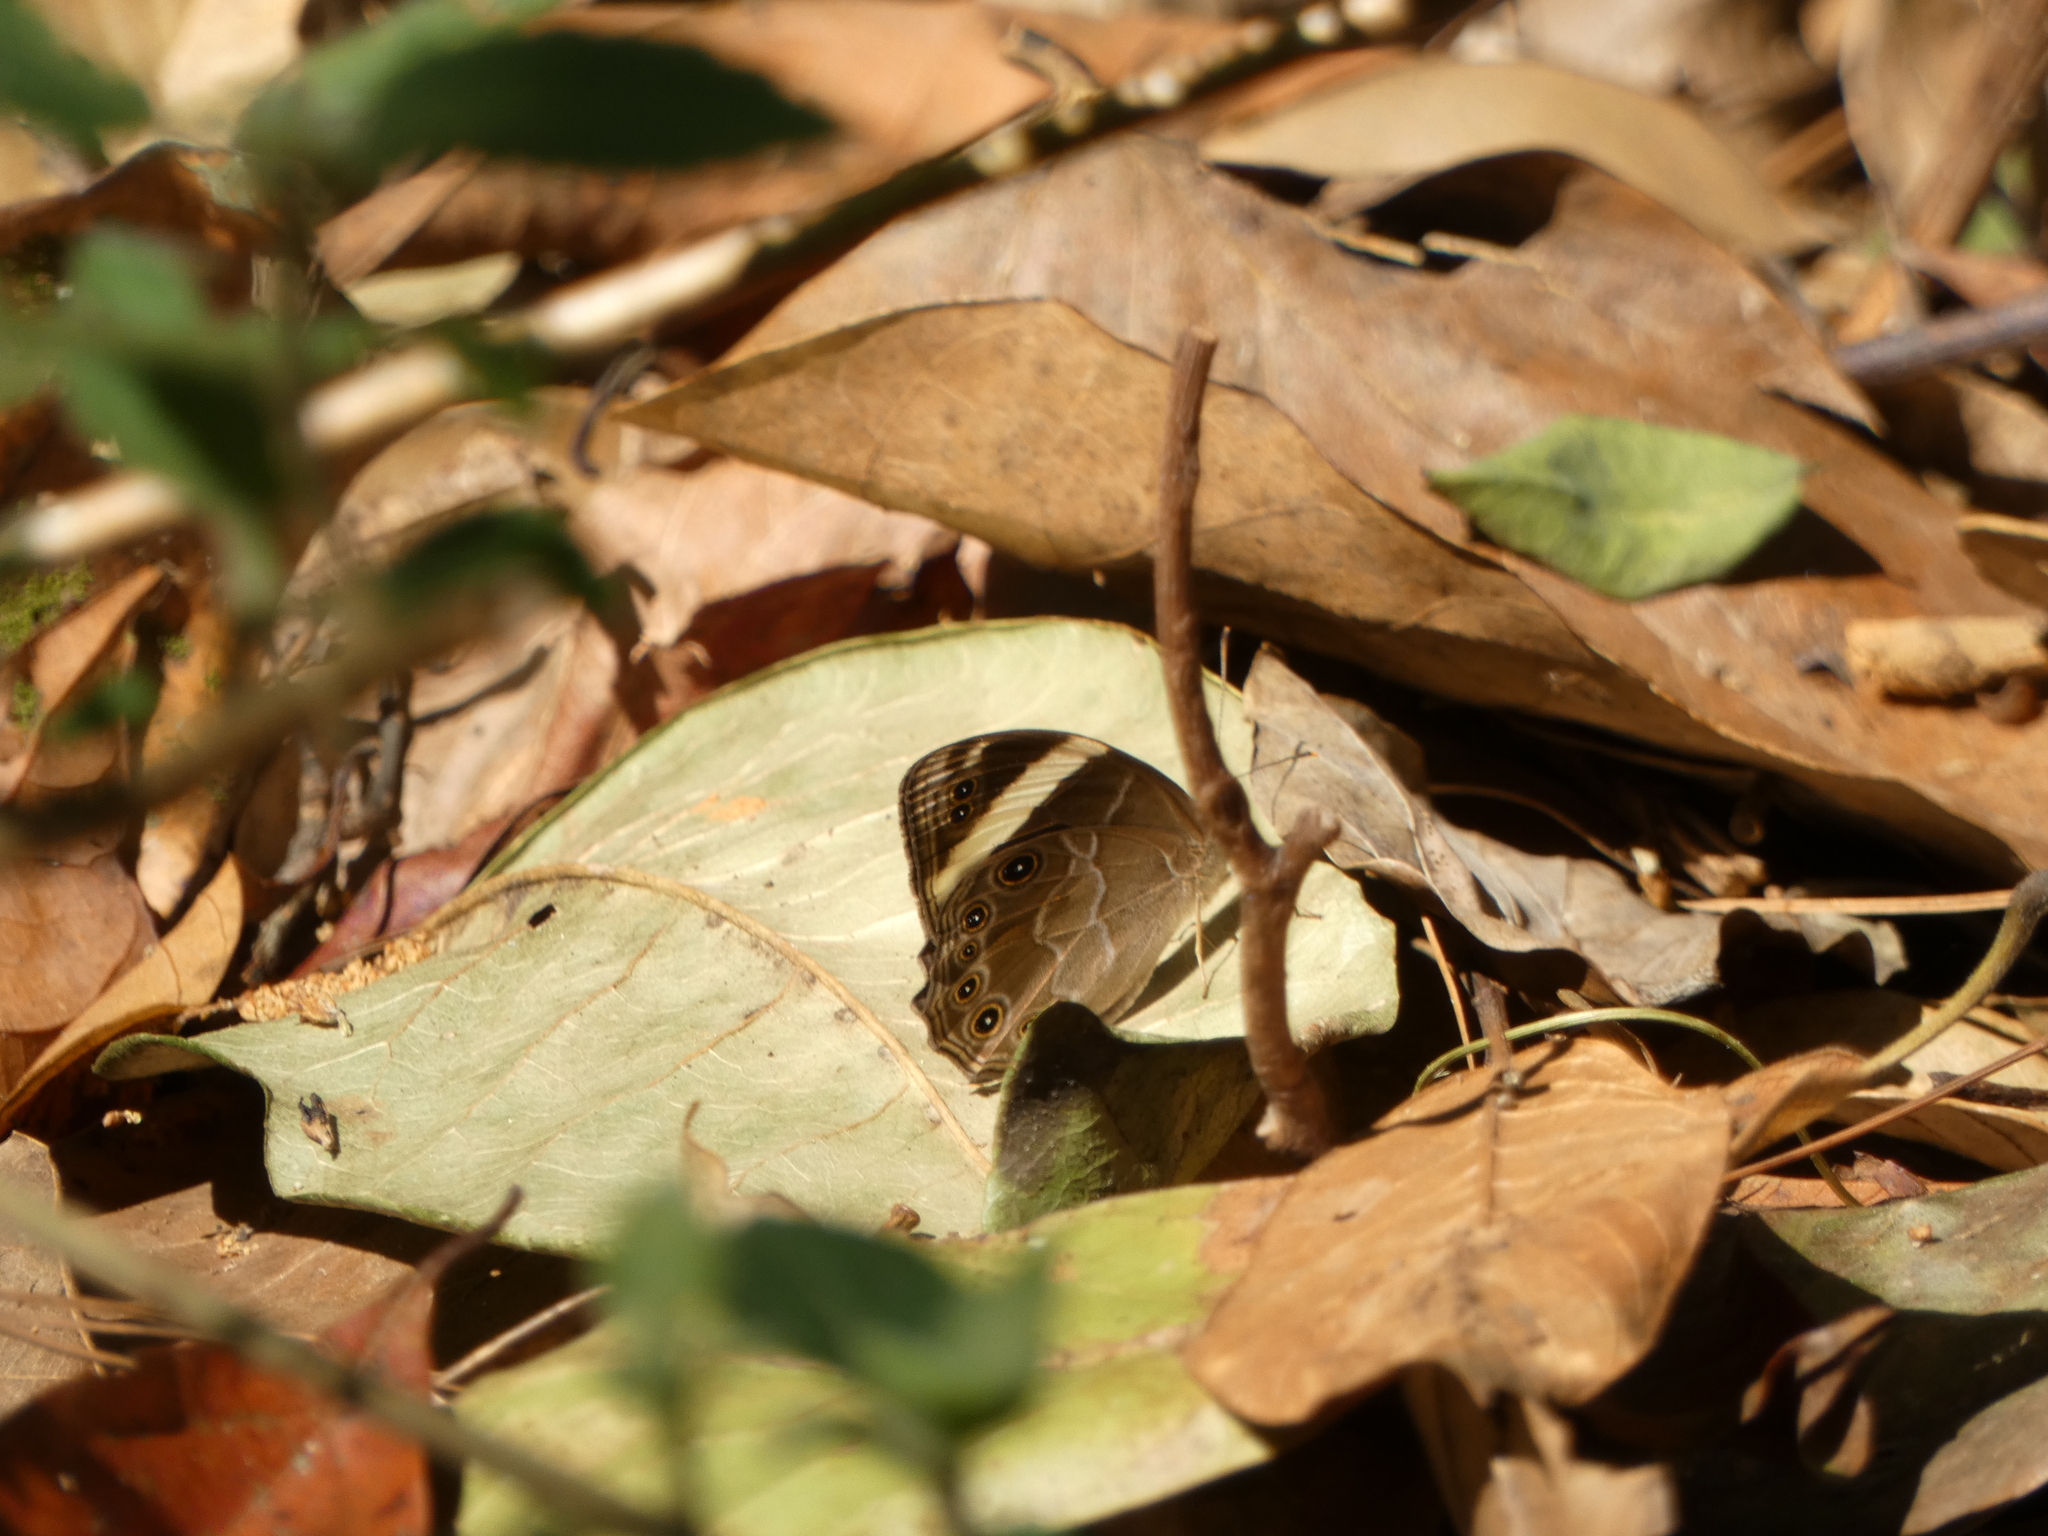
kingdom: Animalia
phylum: Arthropoda
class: Insecta
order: Lepidoptera
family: Nymphalidae
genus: Lethe
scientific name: Lethe verma
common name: Straight-banded treebrown
